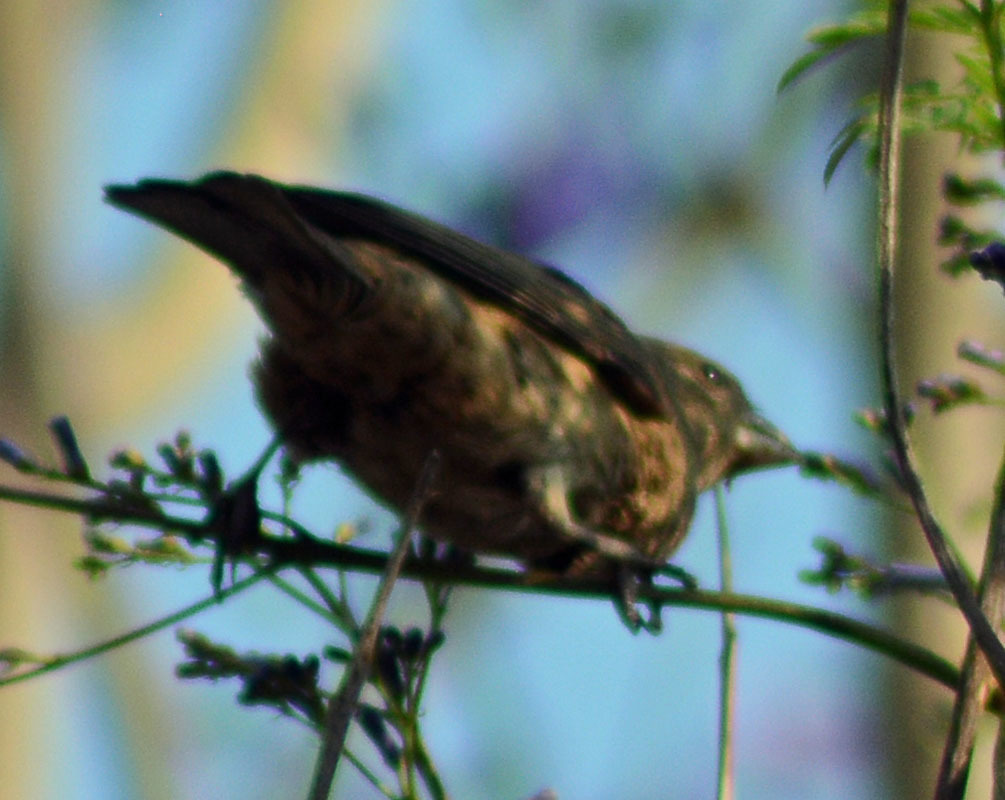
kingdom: Animalia
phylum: Chordata
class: Aves
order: Passeriformes
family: Fringillidae
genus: Haemorhous
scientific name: Haemorhous mexicanus
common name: House finch
